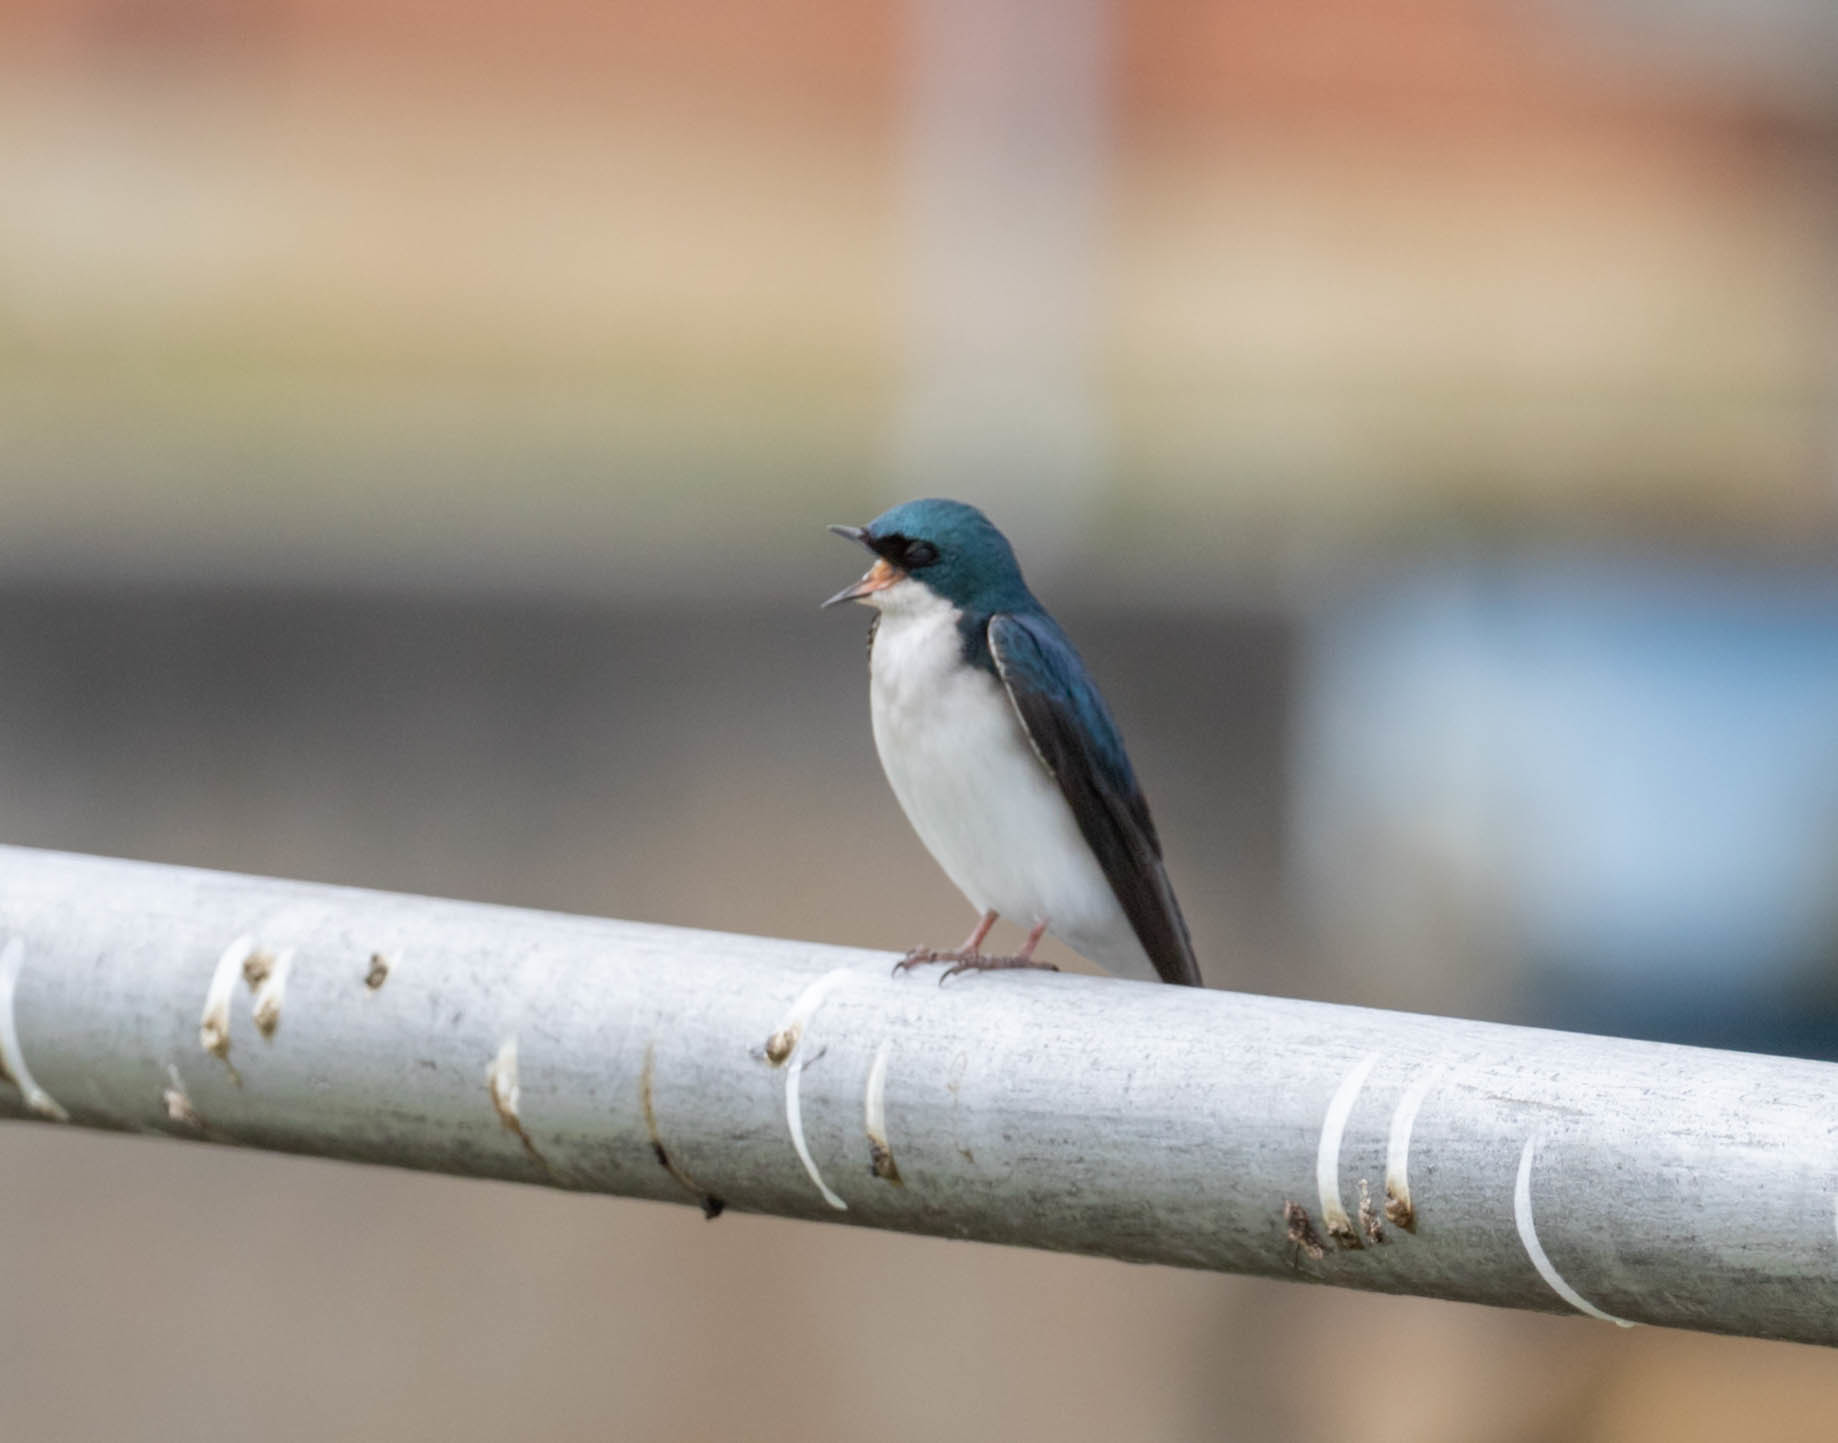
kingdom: Animalia
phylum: Chordata
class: Aves
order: Passeriformes
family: Hirundinidae
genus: Tachycineta
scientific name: Tachycineta bicolor
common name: Tree swallow
